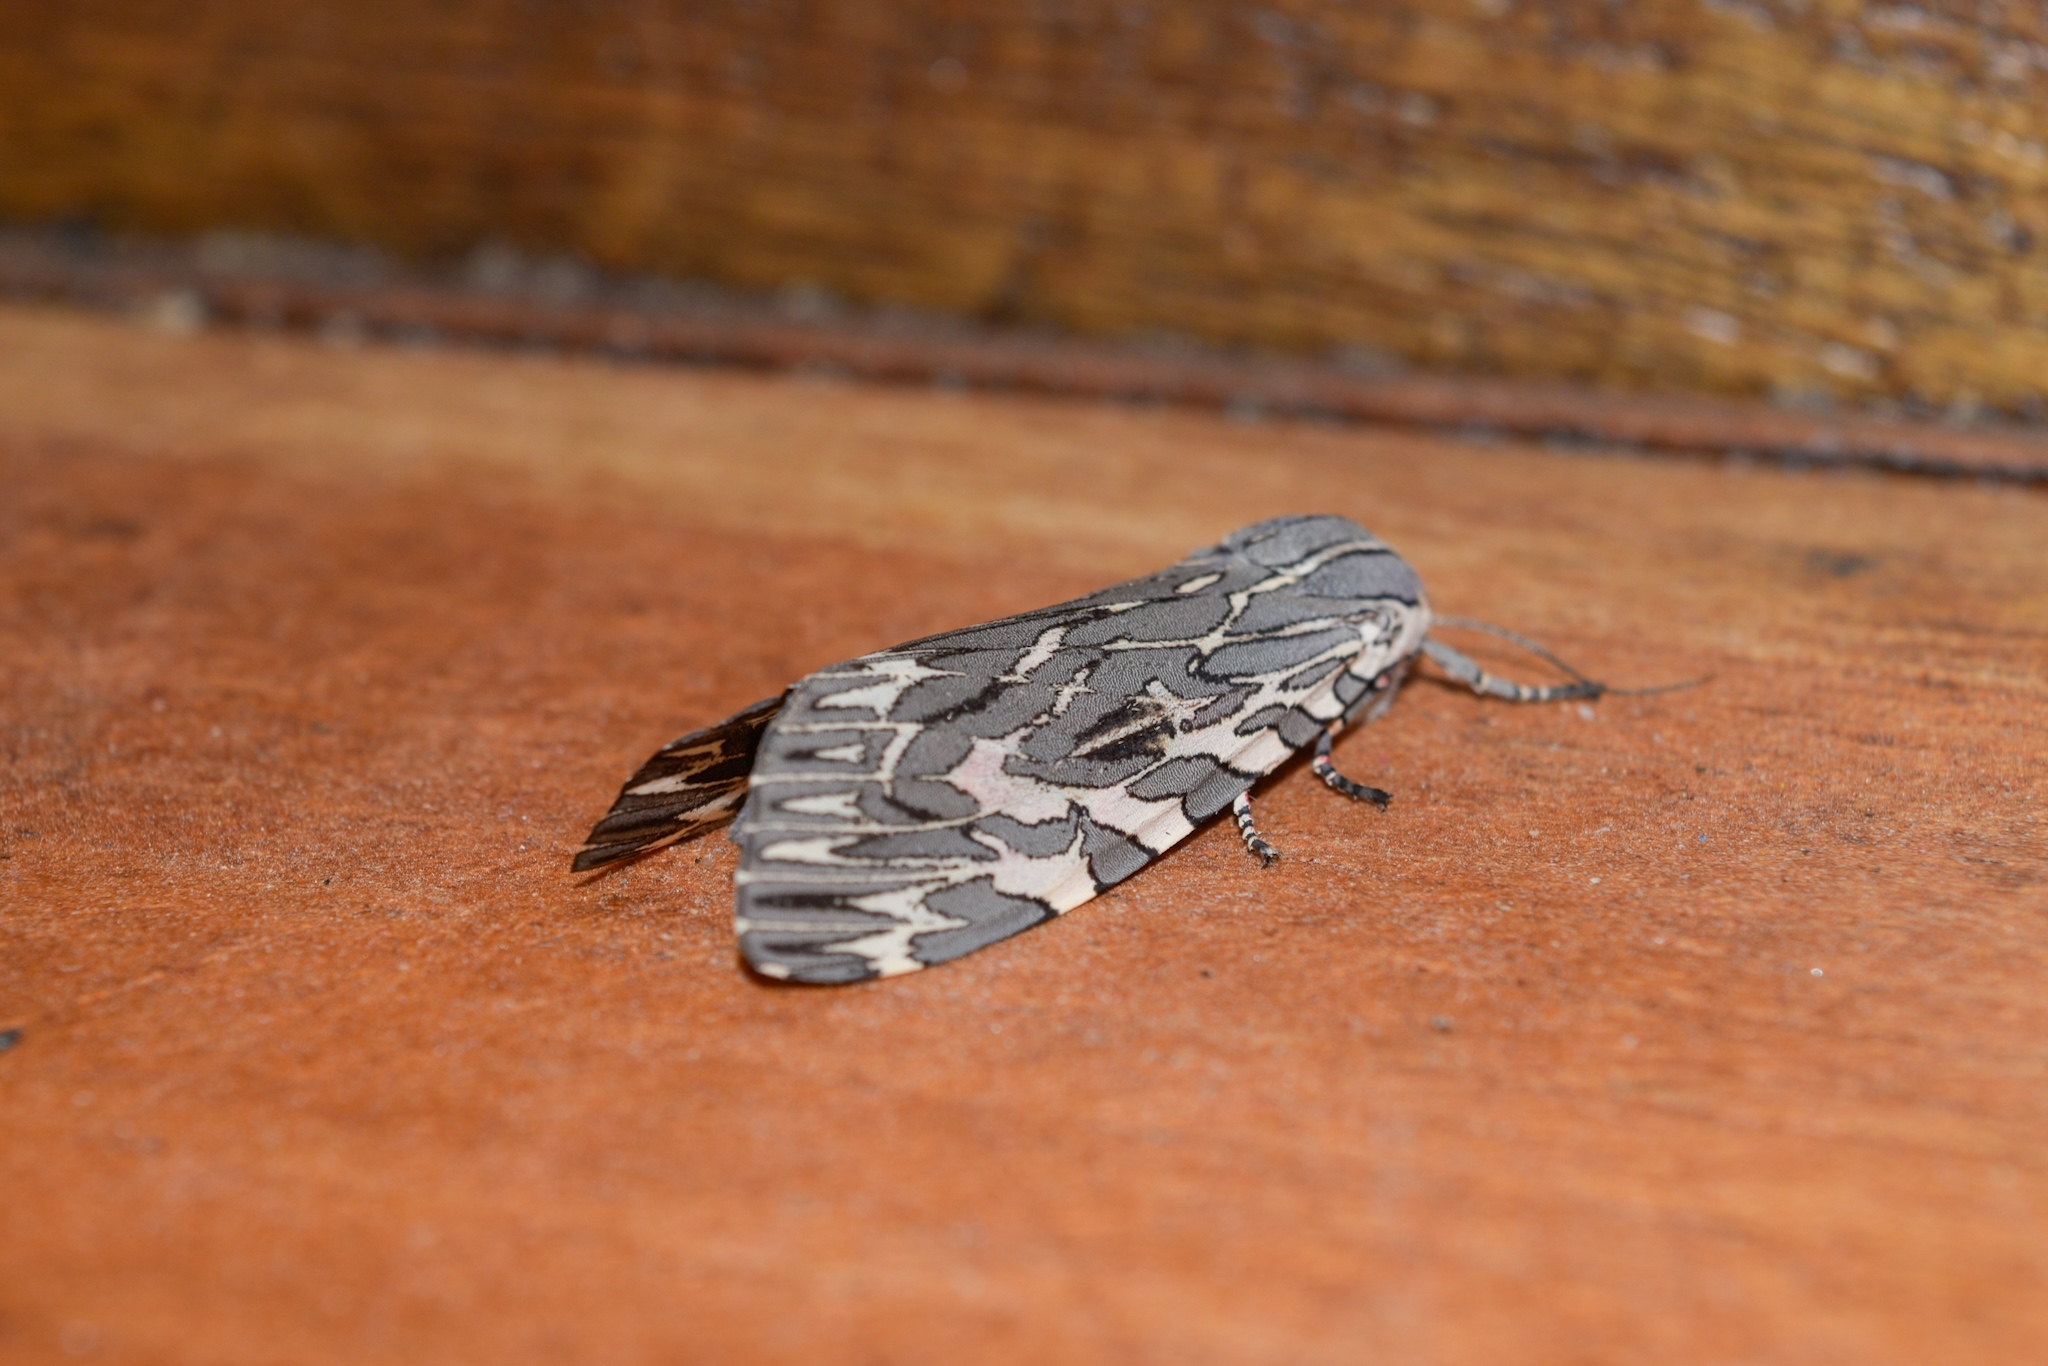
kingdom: Animalia
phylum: Arthropoda
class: Insecta
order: Lepidoptera
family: Erebidae
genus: Arachnis
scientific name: Arachnis aulaea
